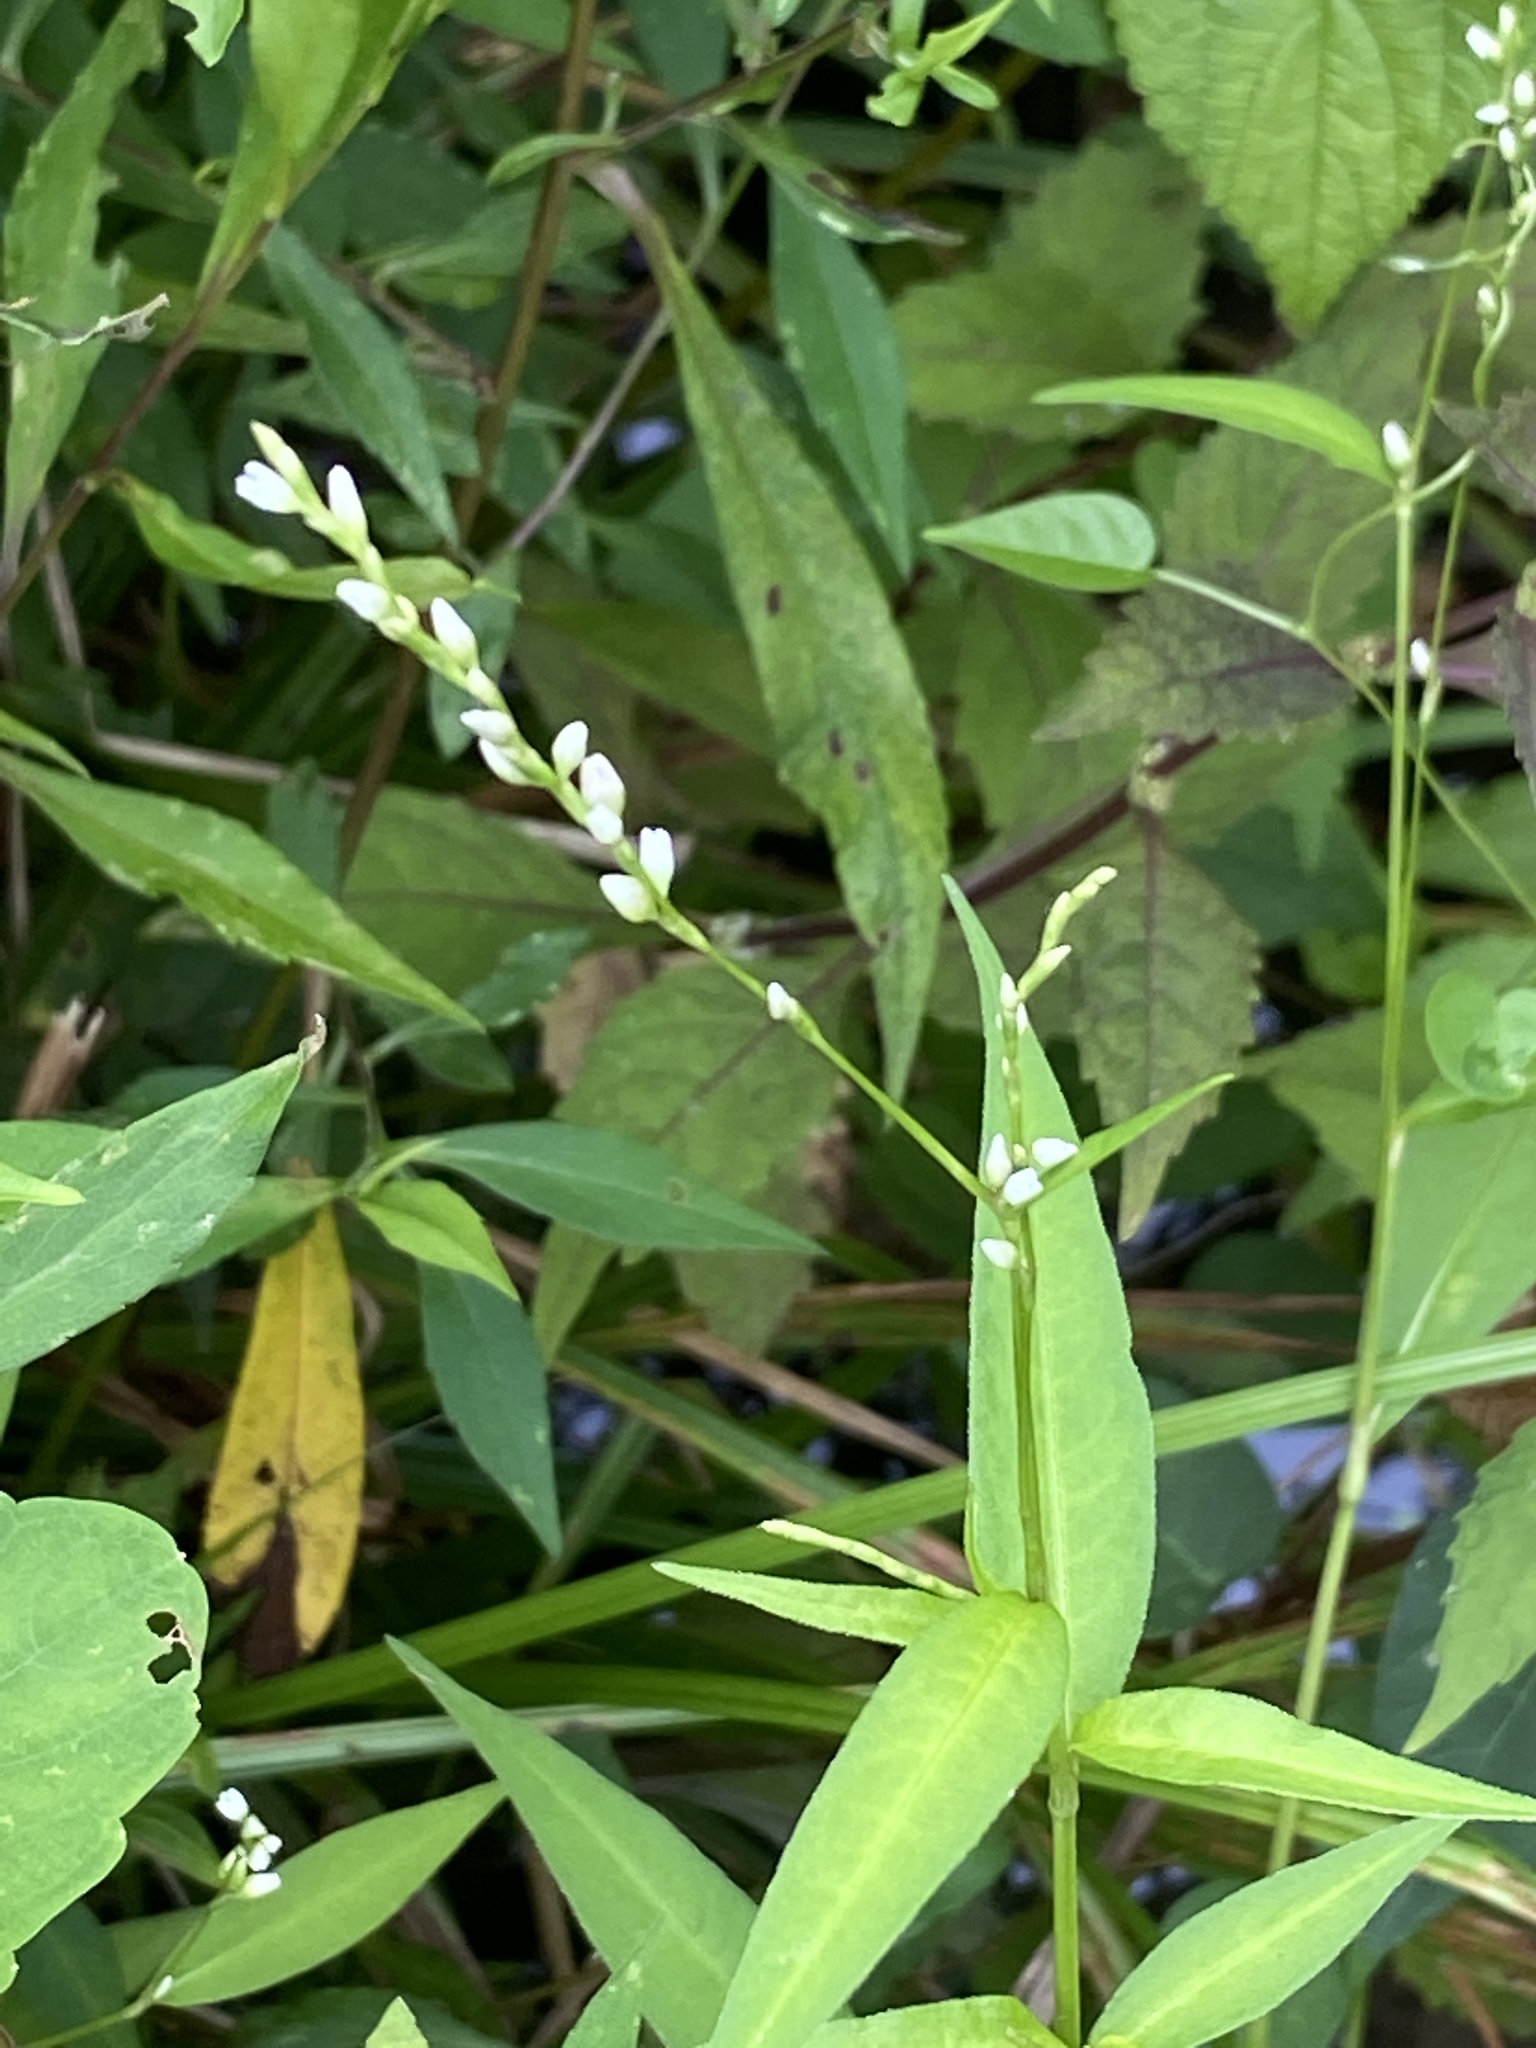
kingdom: Plantae
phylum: Tracheophyta
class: Magnoliopsida
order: Caryophyllales
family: Polygonaceae
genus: Persicaria
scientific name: Persicaria punctata
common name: Dotted smartweed
